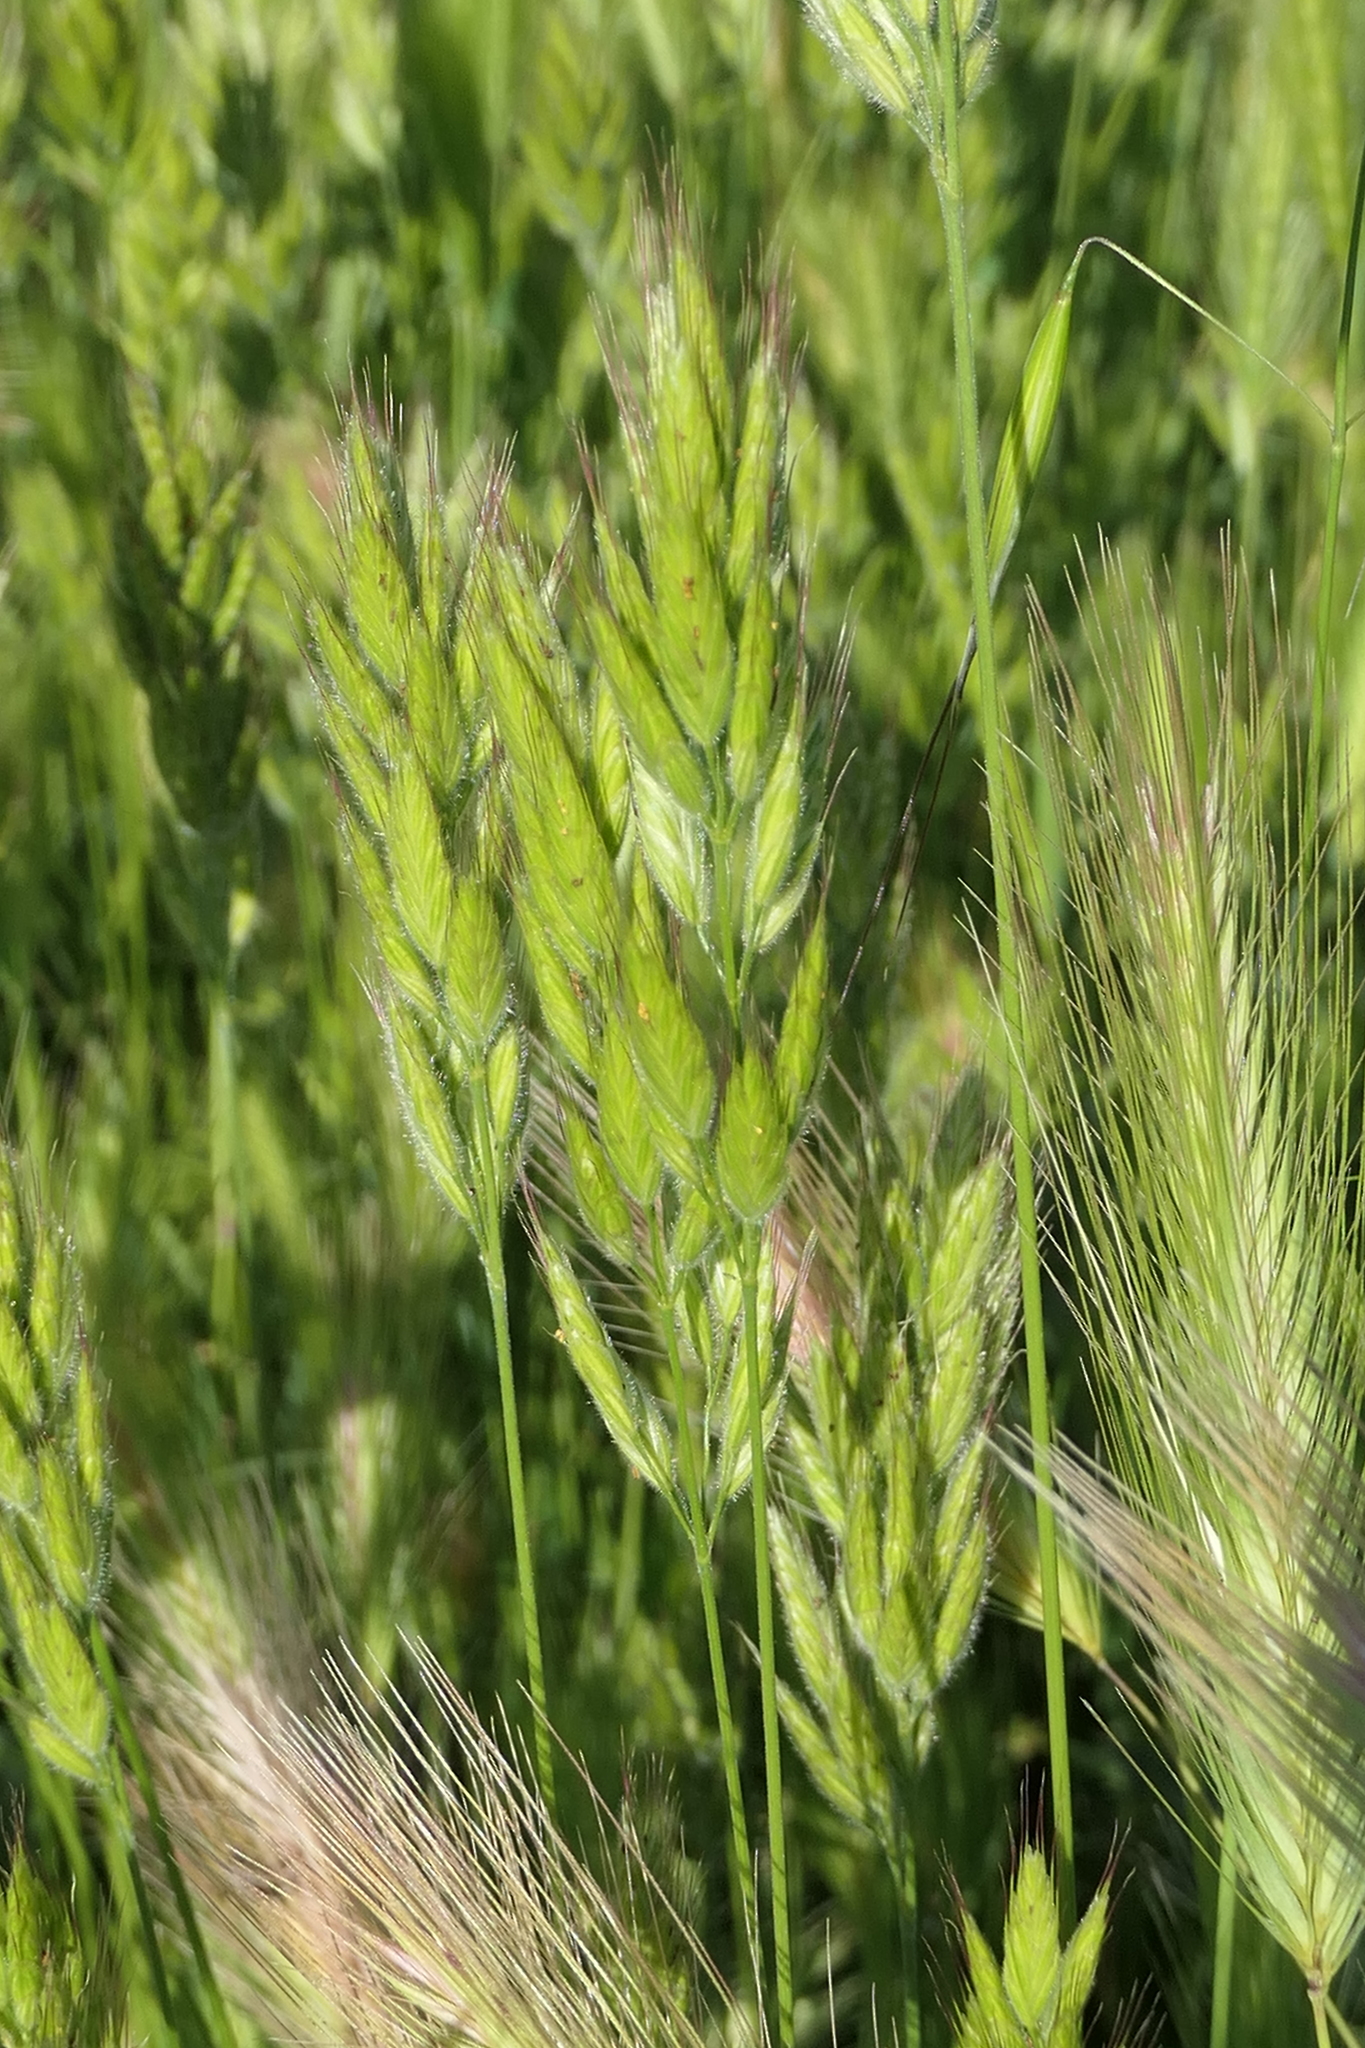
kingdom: Plantae
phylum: Tracheophyta
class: Liliopsida
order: Poales
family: Poaceae
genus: Bromus
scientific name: Bromus hordeaceus
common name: Soft brome
